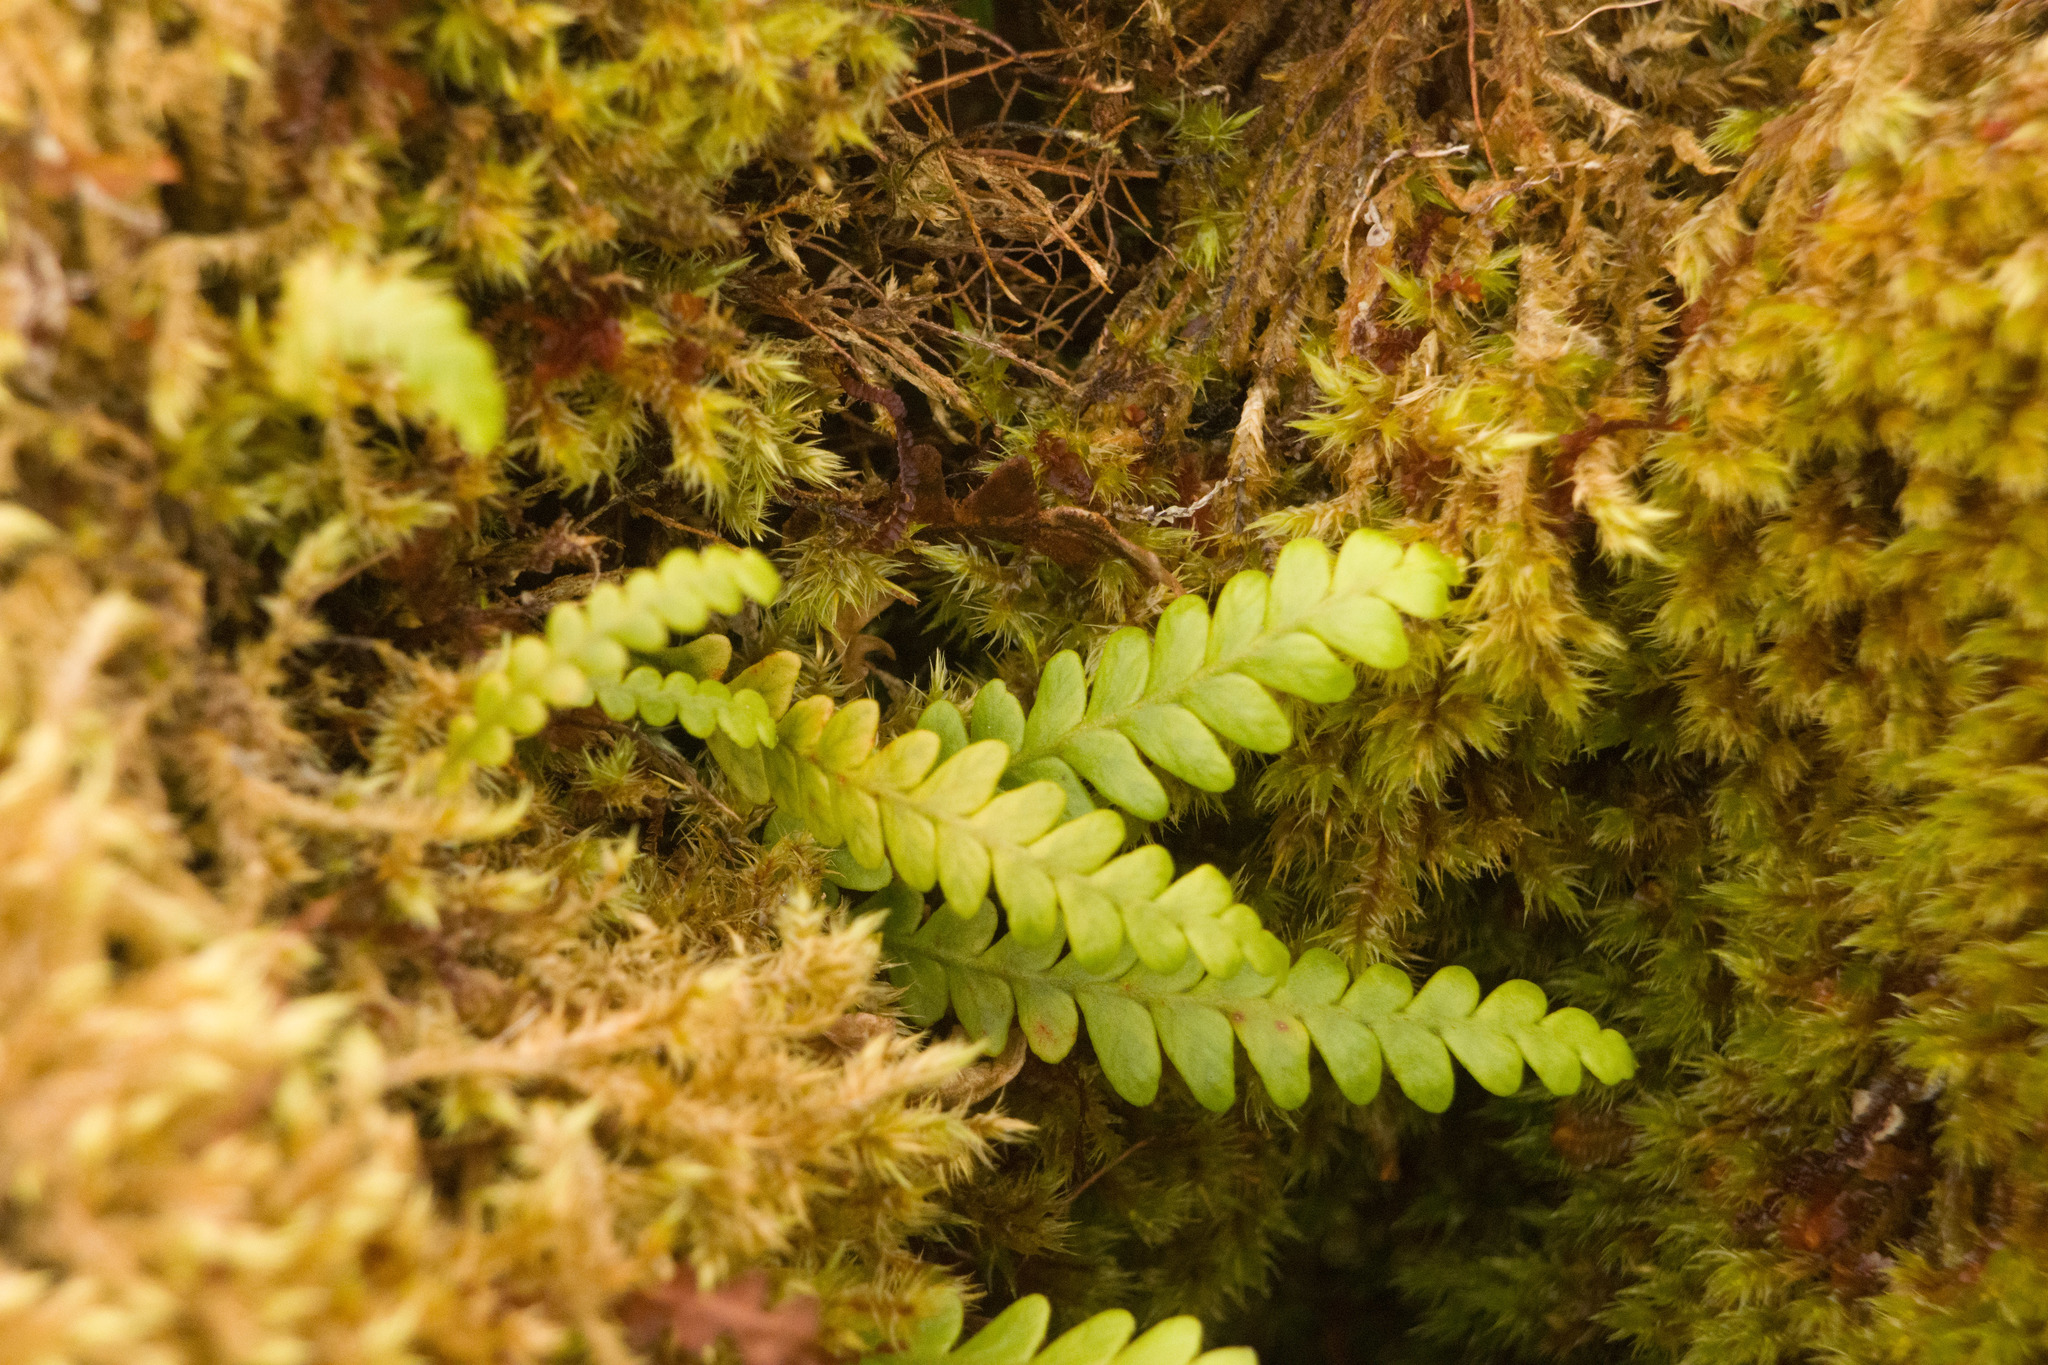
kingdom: Plantae
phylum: Tracheophyta
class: Polypodiopsida
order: Polypodiales
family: Polypodiaceae
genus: Adenophorus
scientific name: Adenophorus pinnatifidus
